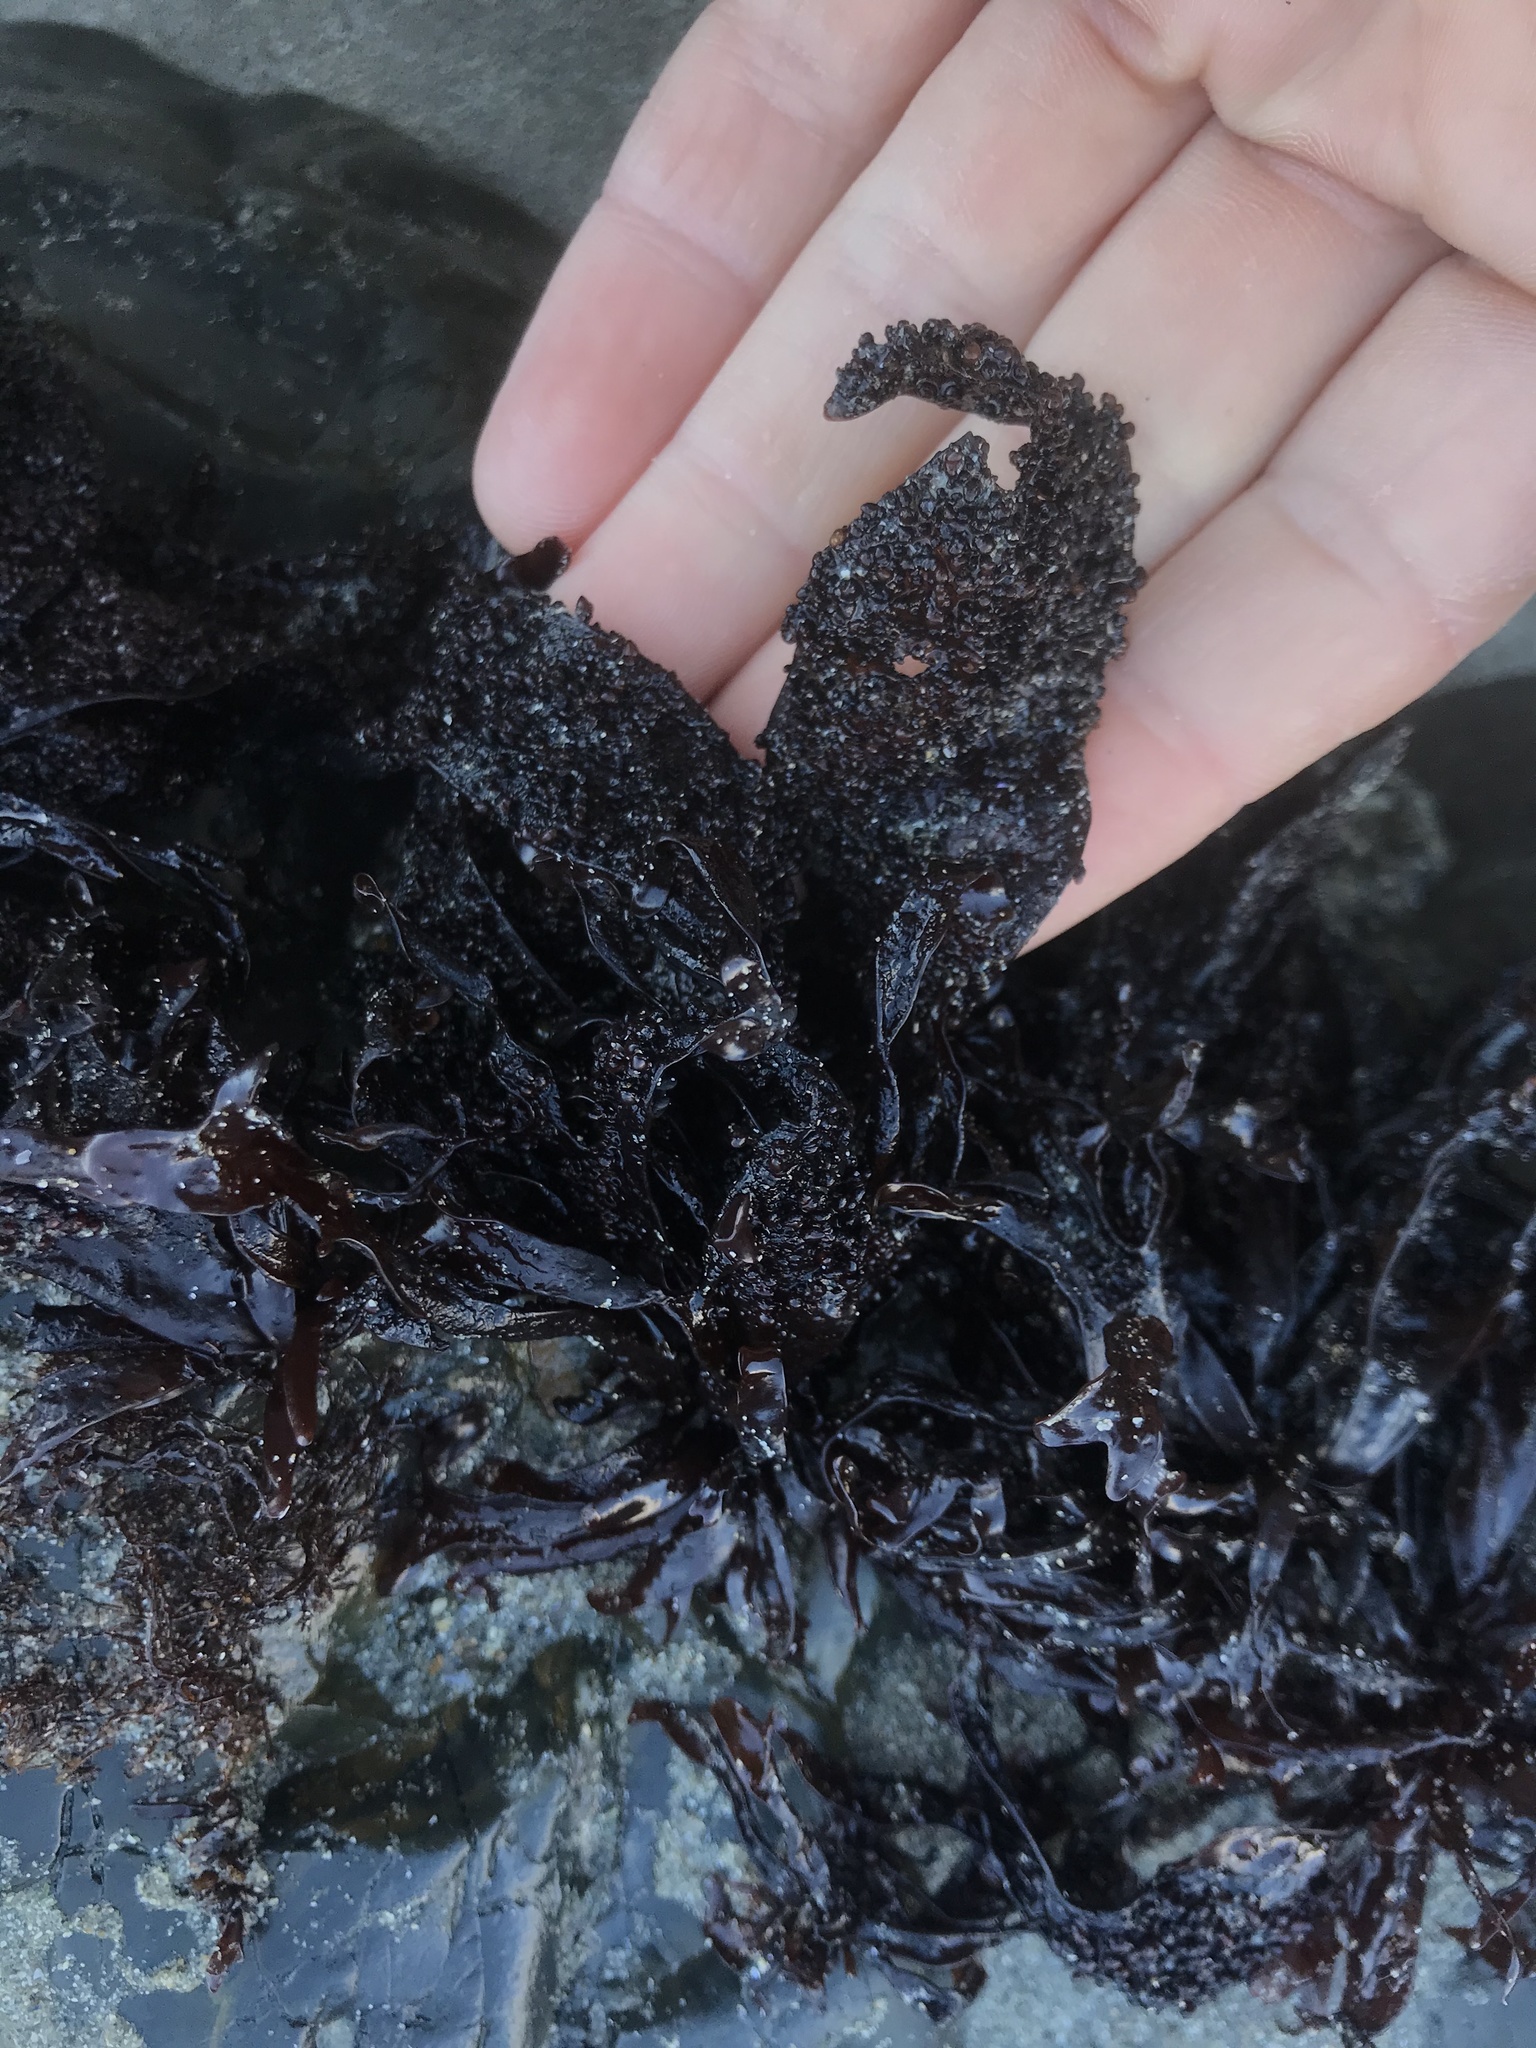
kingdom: Plantae
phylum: Rhodophyta
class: Florideophyceae
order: Gigartinales
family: Phyllophoraceae
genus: Mastocarpus
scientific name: Mastocarpus papillatus
